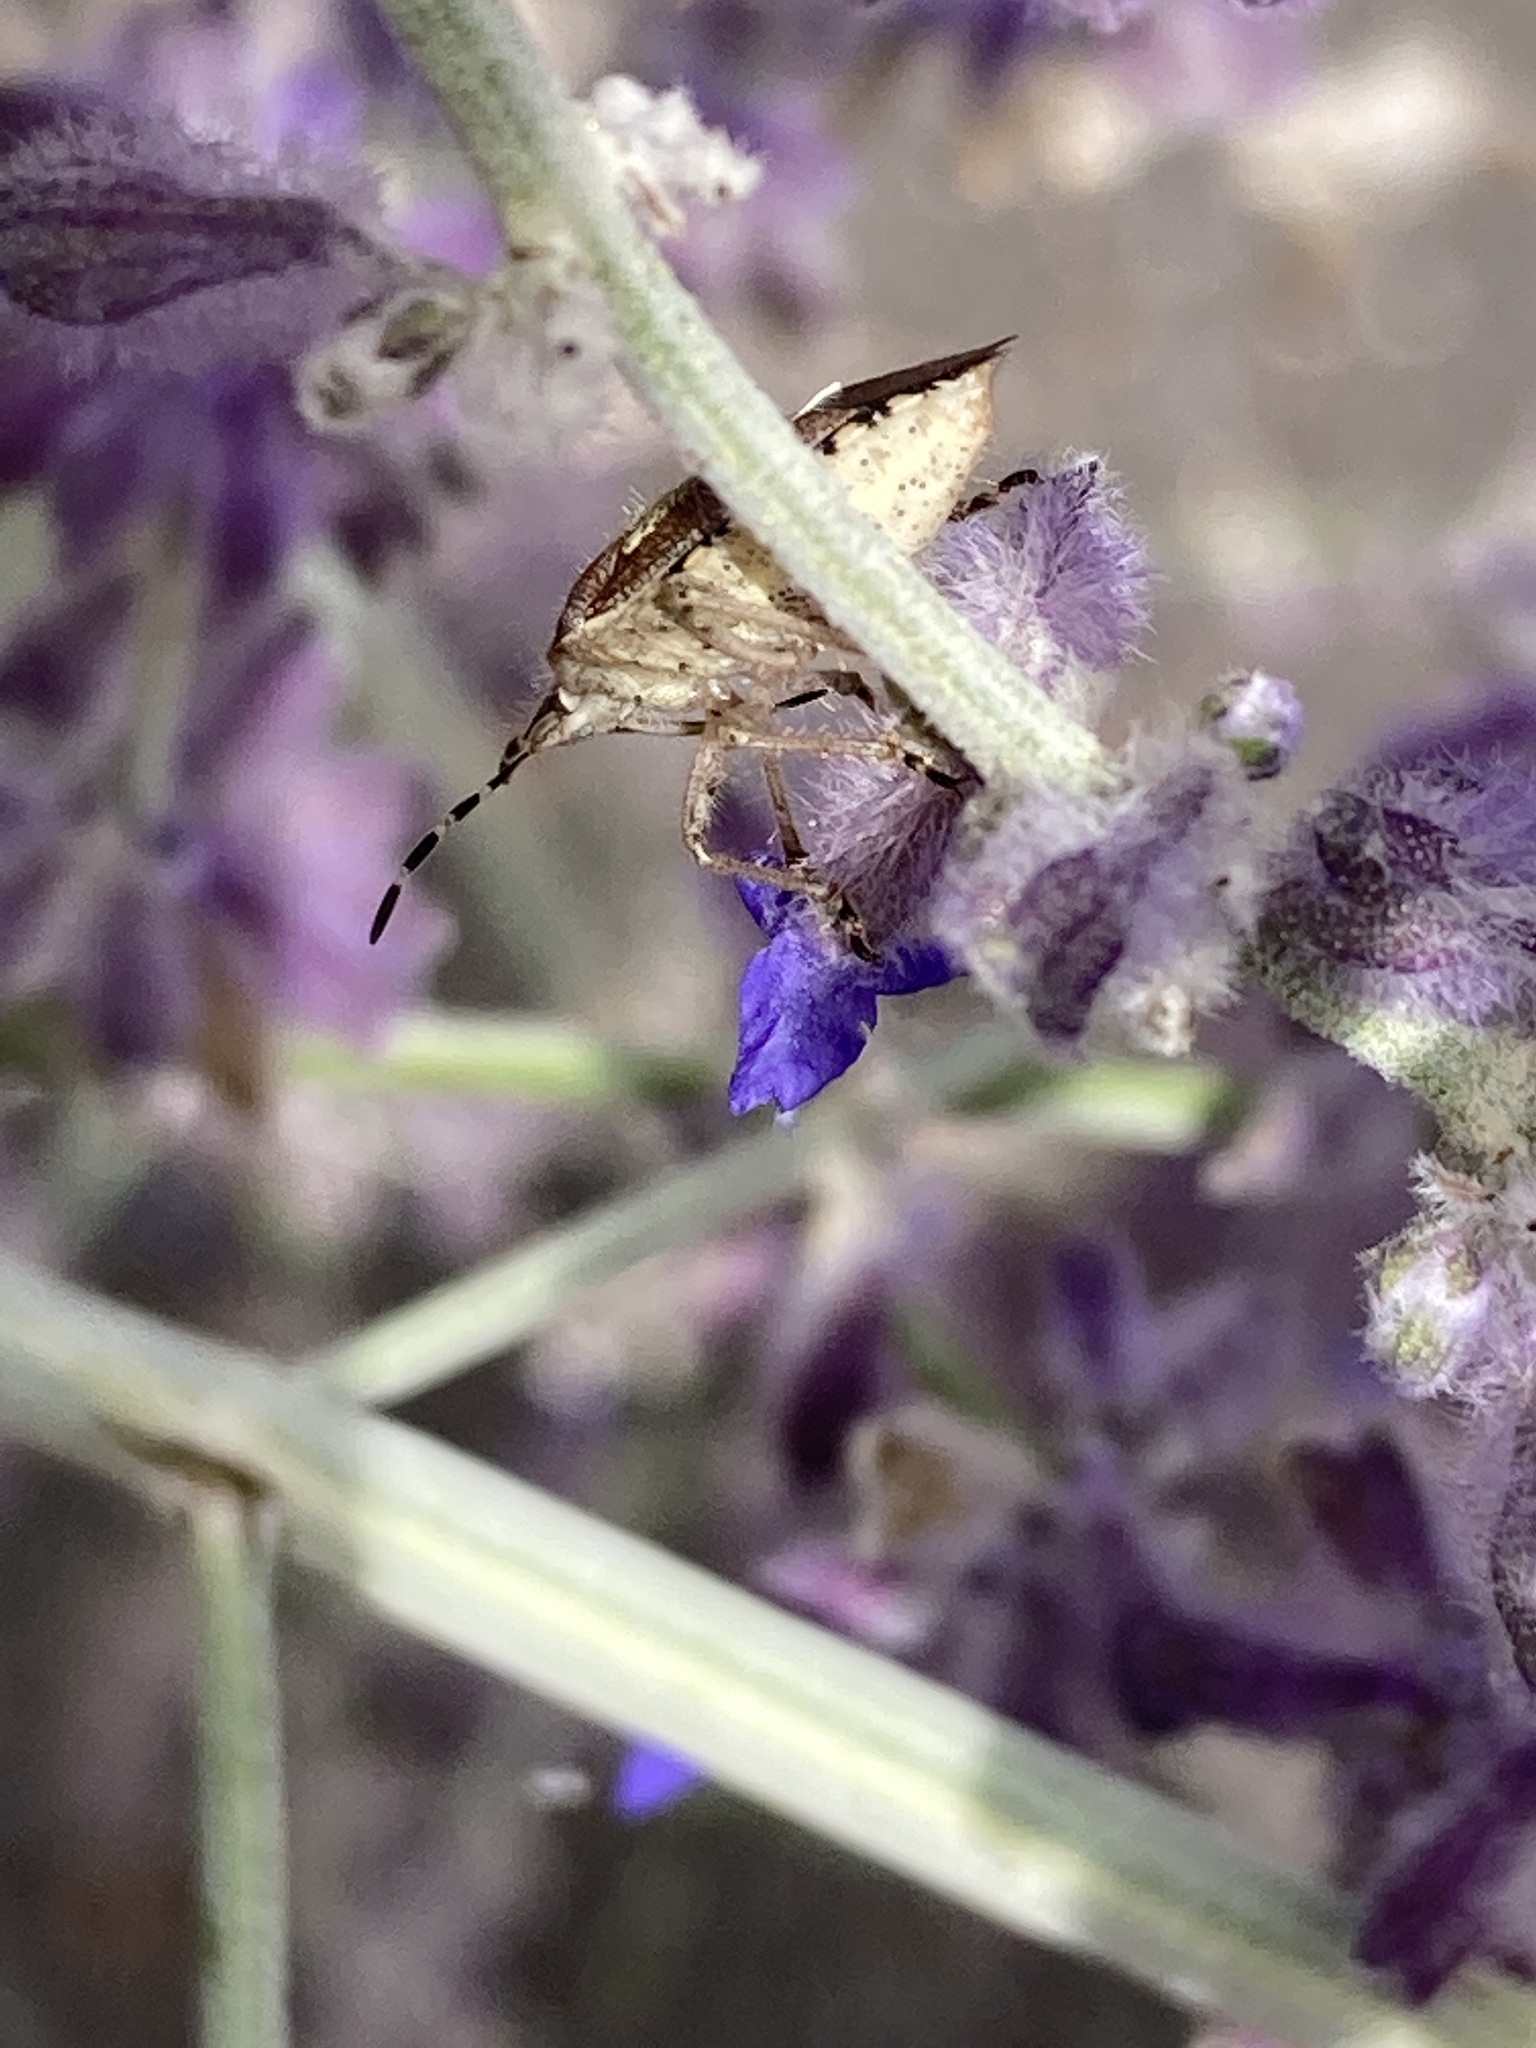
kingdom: Animalia
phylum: Arthropoda
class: Insecta
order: Hemiptera
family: Pentatomidae
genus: Dolycoris
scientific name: Dolycoris baccarum
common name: Sloe bug
